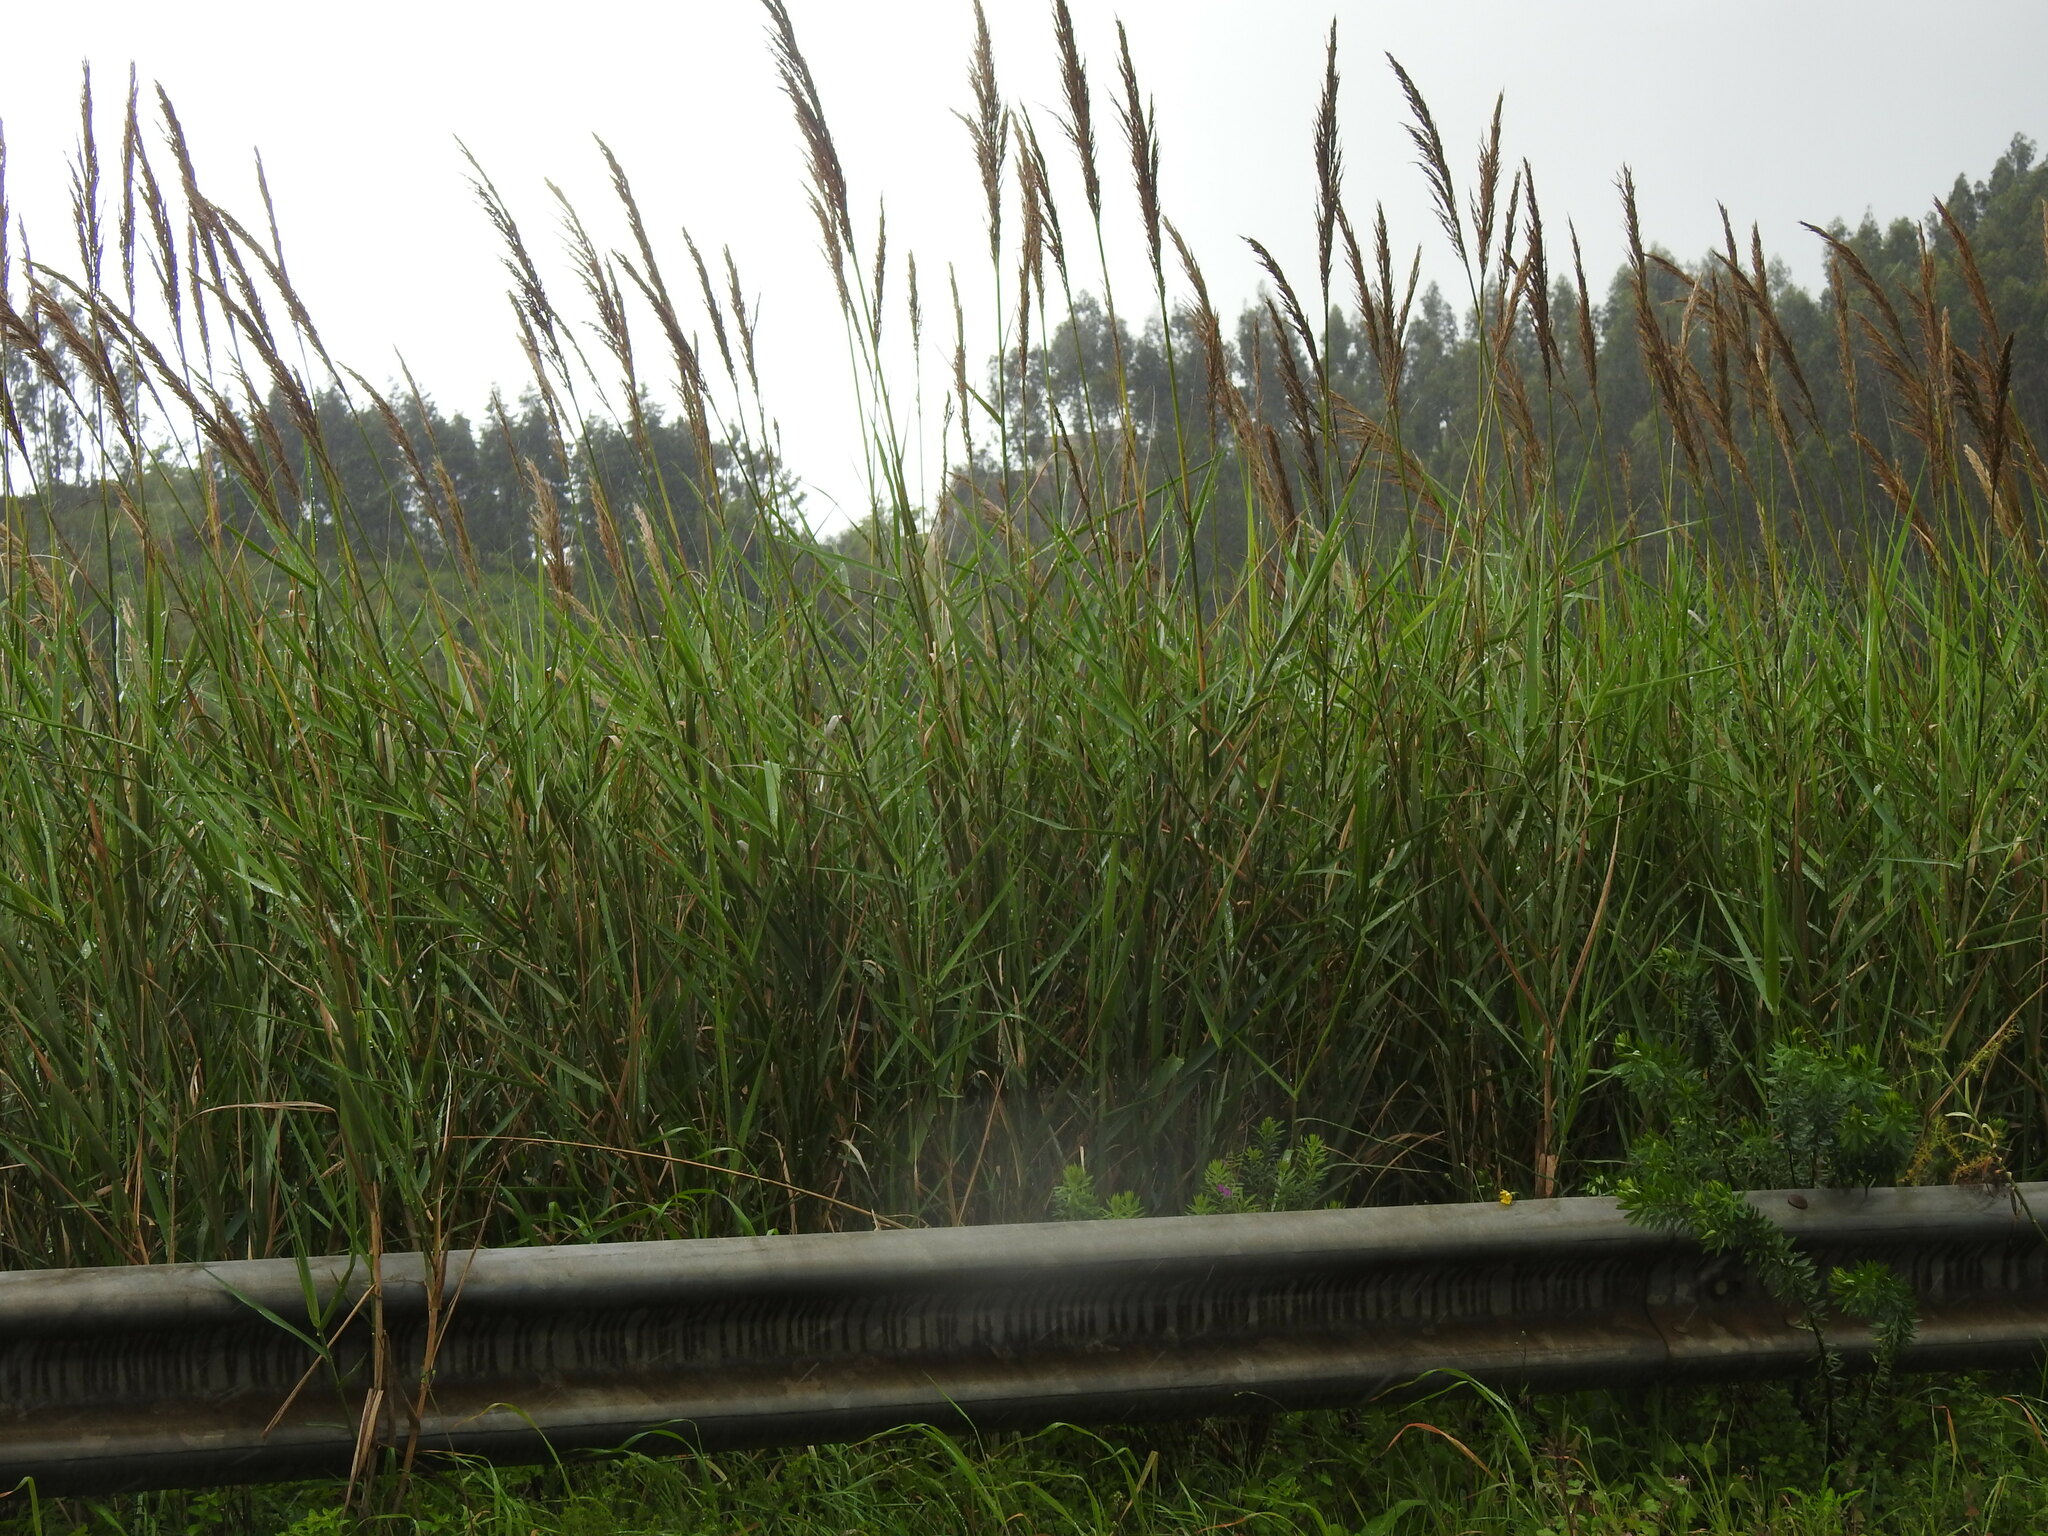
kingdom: Plantae
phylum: Tracheophyta
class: Liliopsida
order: Poales
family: Poaceae
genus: Arundo
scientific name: Arundo micrantha
